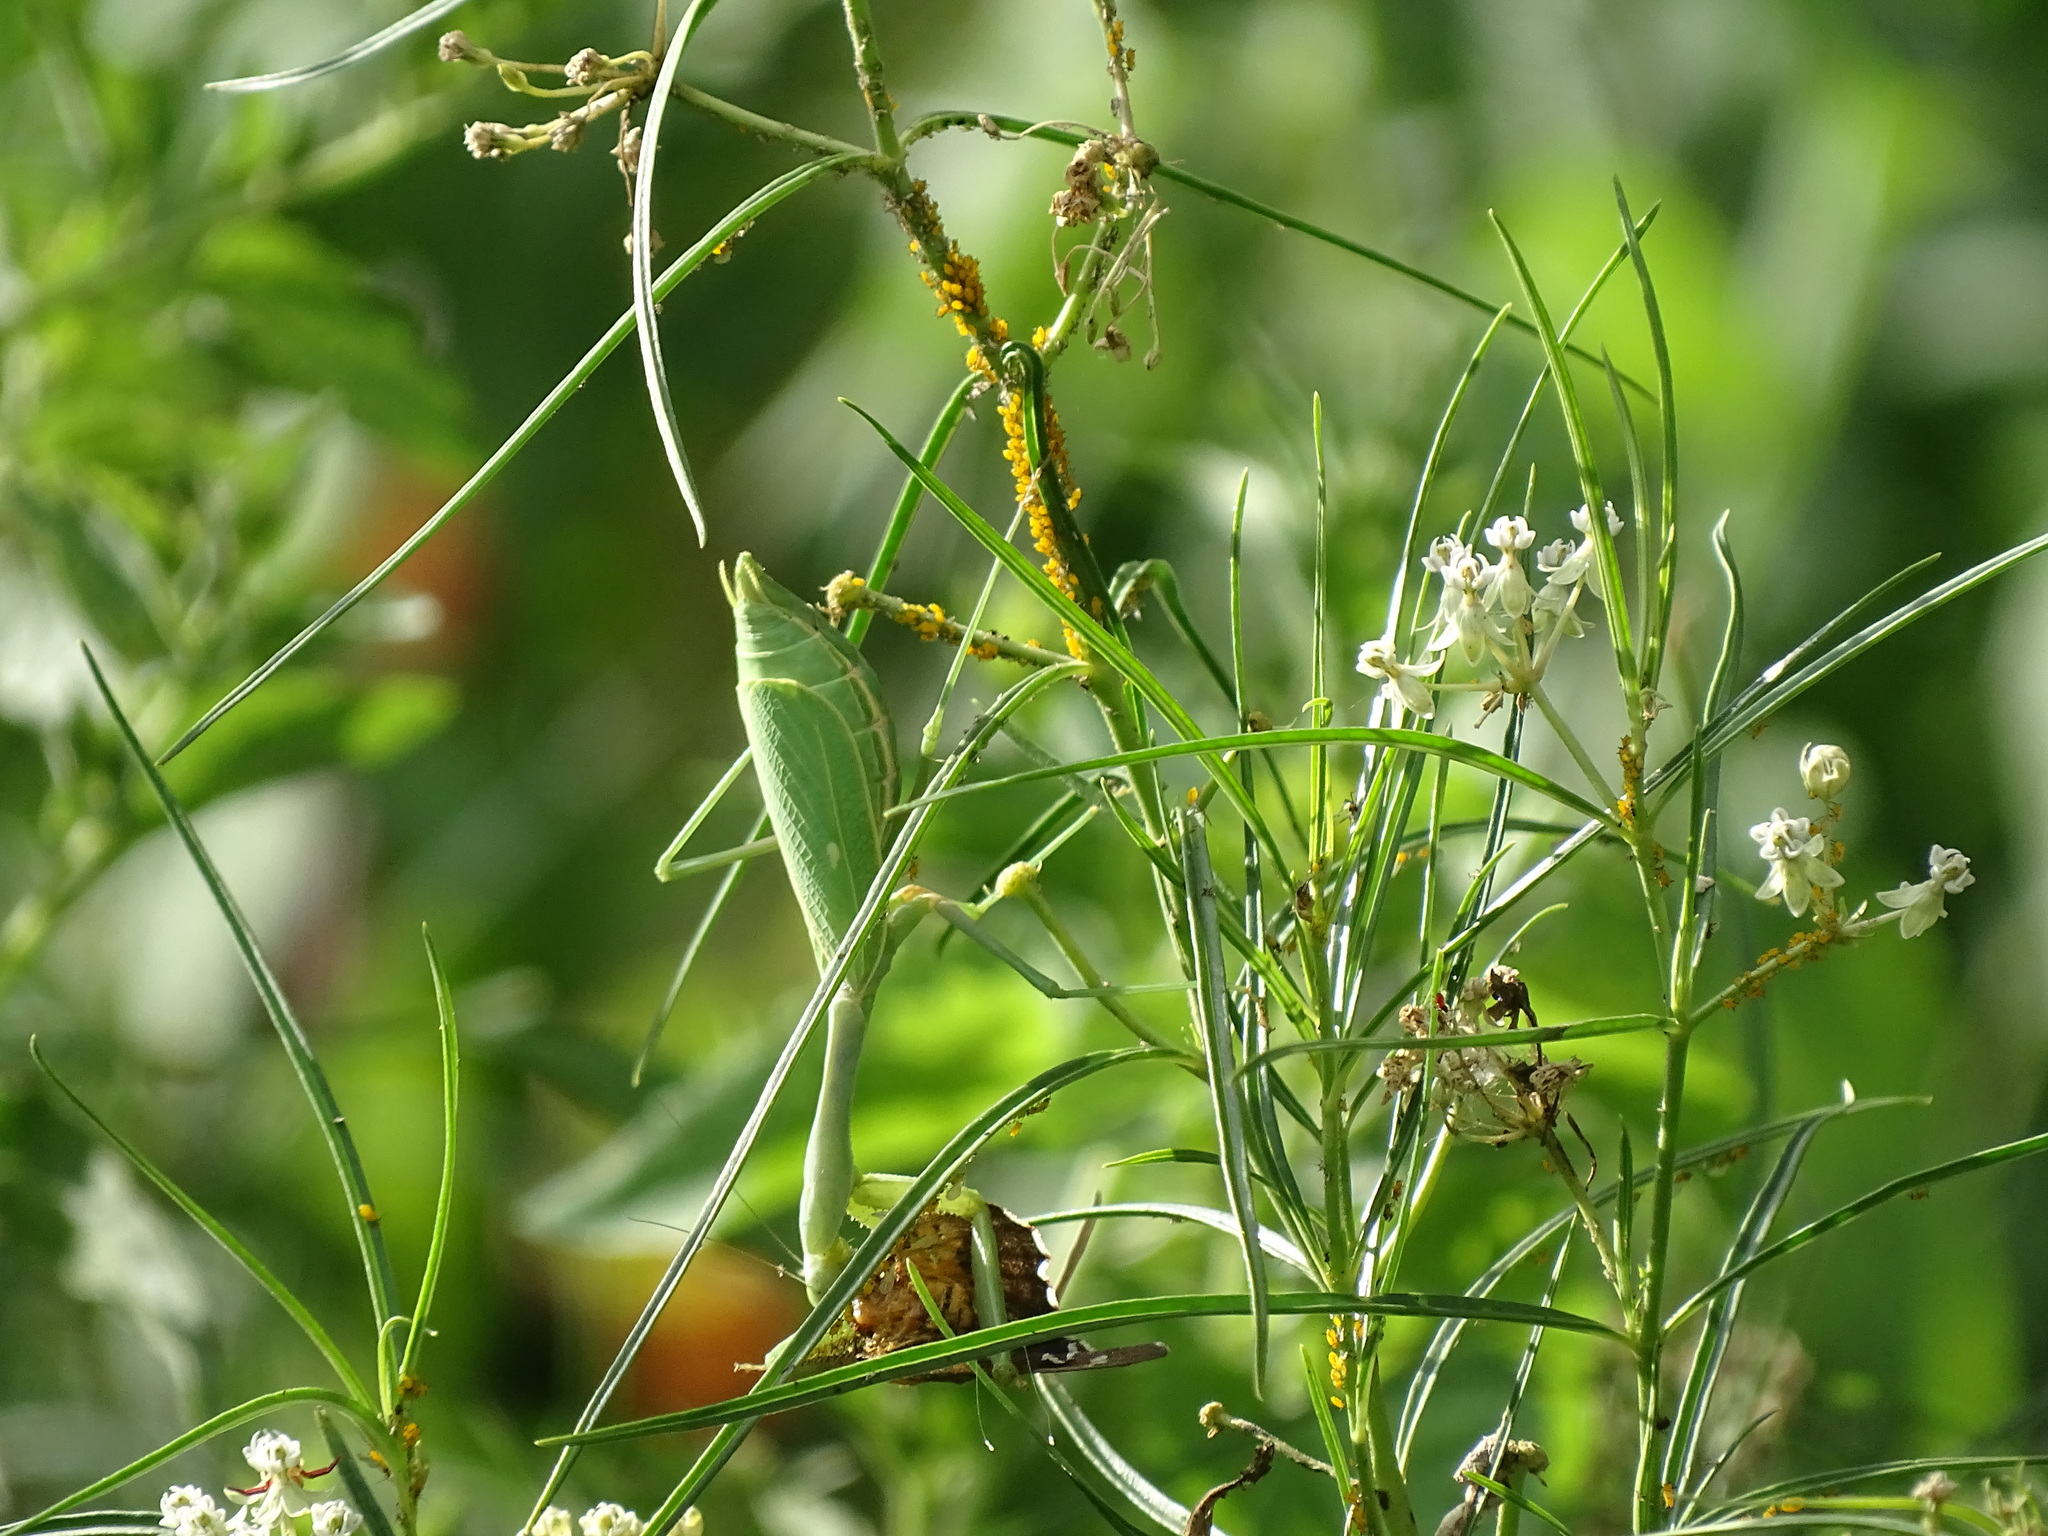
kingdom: Animalia
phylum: Arthropoda
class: Insecta
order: Mantodea
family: Mantidae
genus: Stagmomantis
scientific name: Stagmomantis limbata
